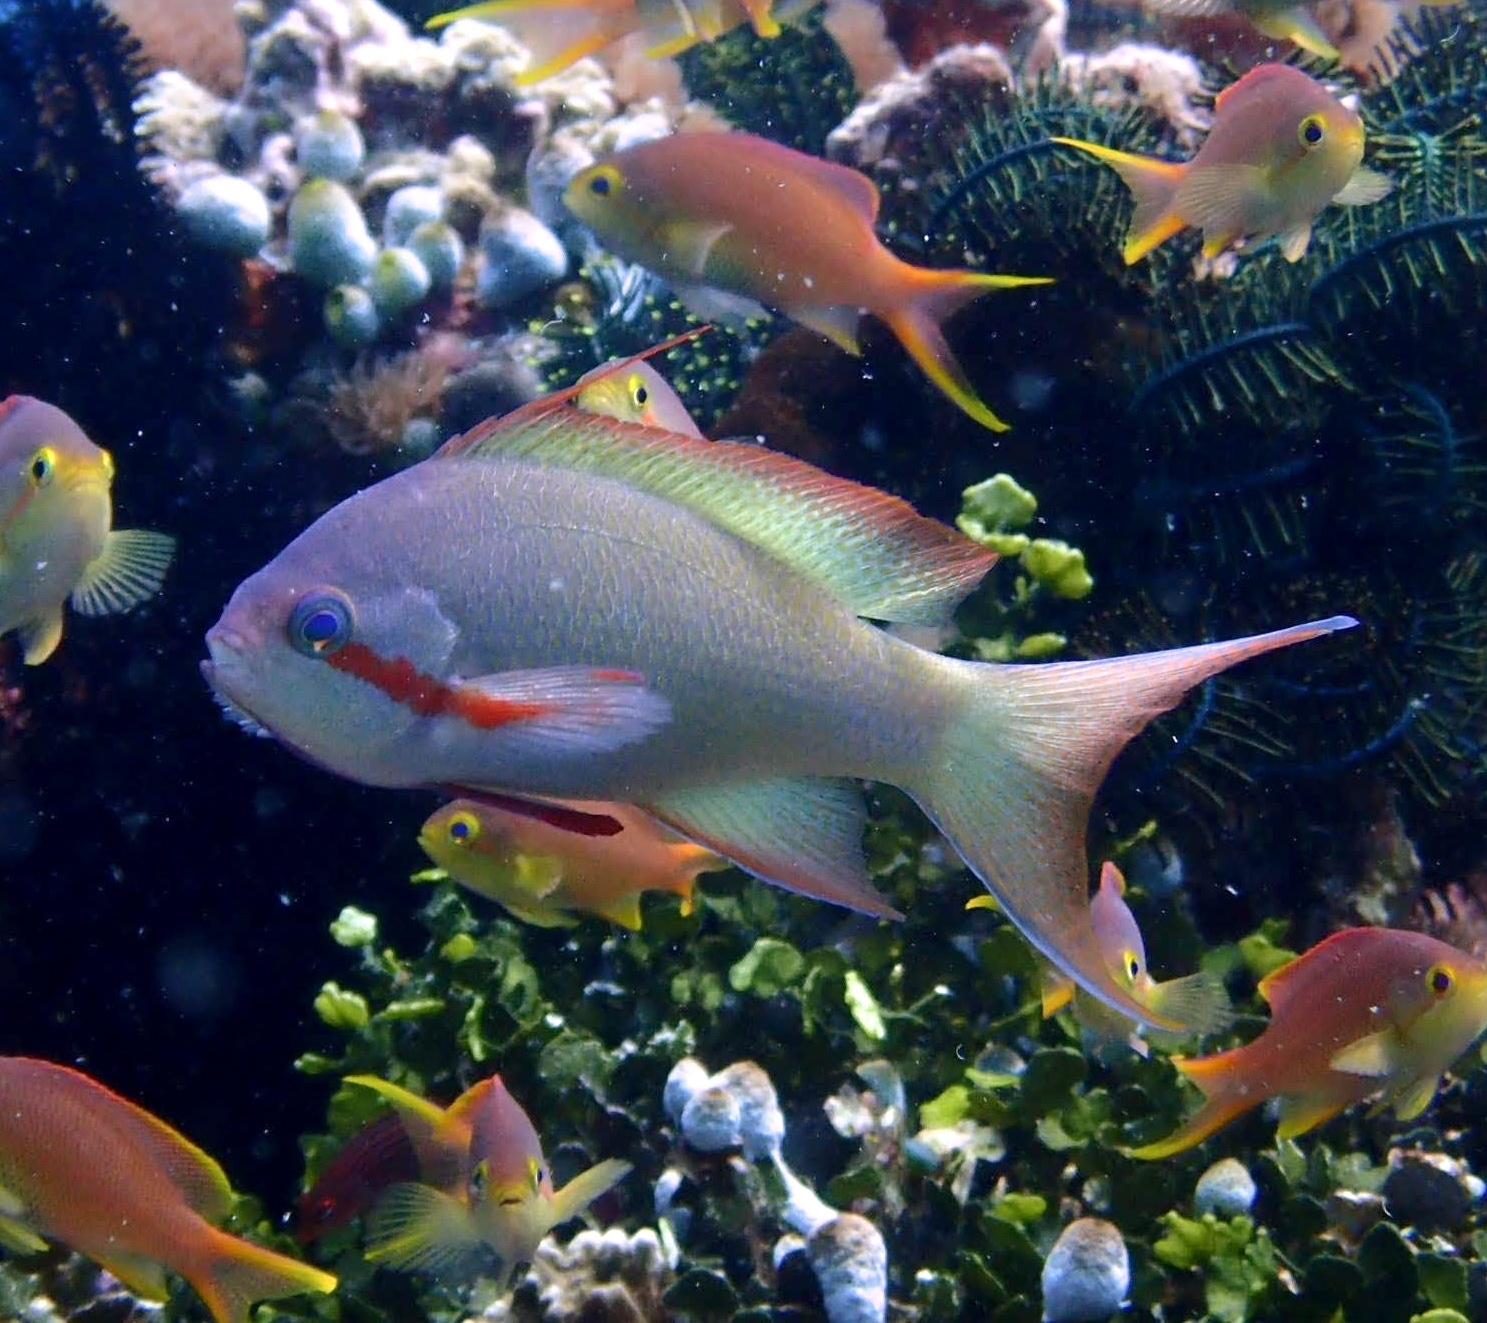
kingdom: Animalia
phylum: Chordata
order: Perciformes
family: Serranidae
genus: Pseudanthias
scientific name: Pseudanthias huchtii
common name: Pacific basslet
